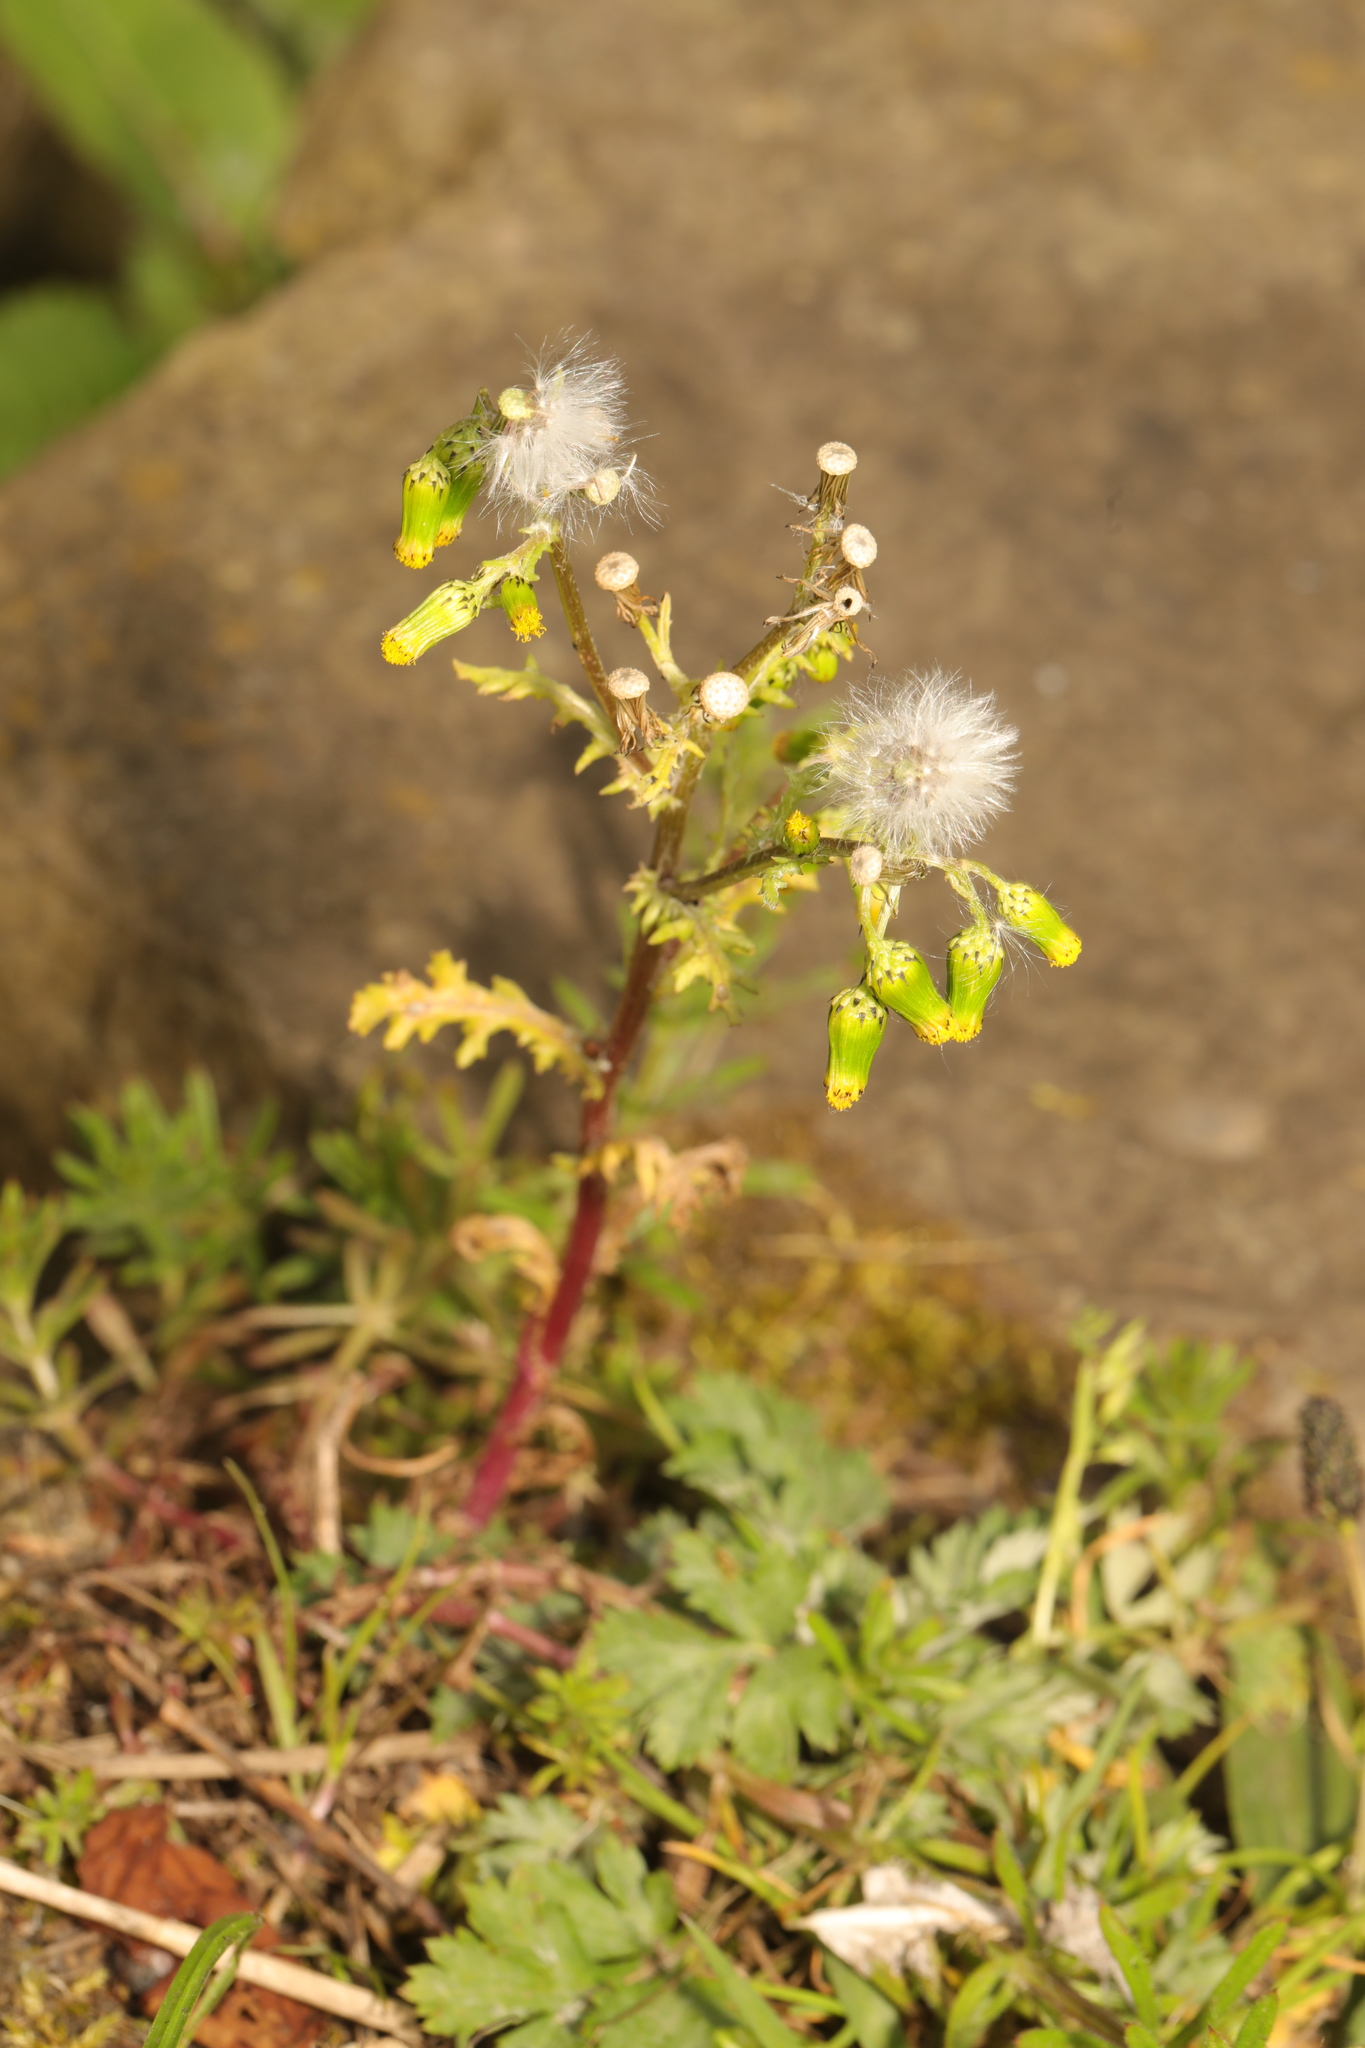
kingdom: Plantae
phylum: Tracheophyta
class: Magnoliopsida
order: Asterales
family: Asteraceae
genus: Senecio
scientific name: Senecio vulgaris
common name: Old-man-in-the-spring
